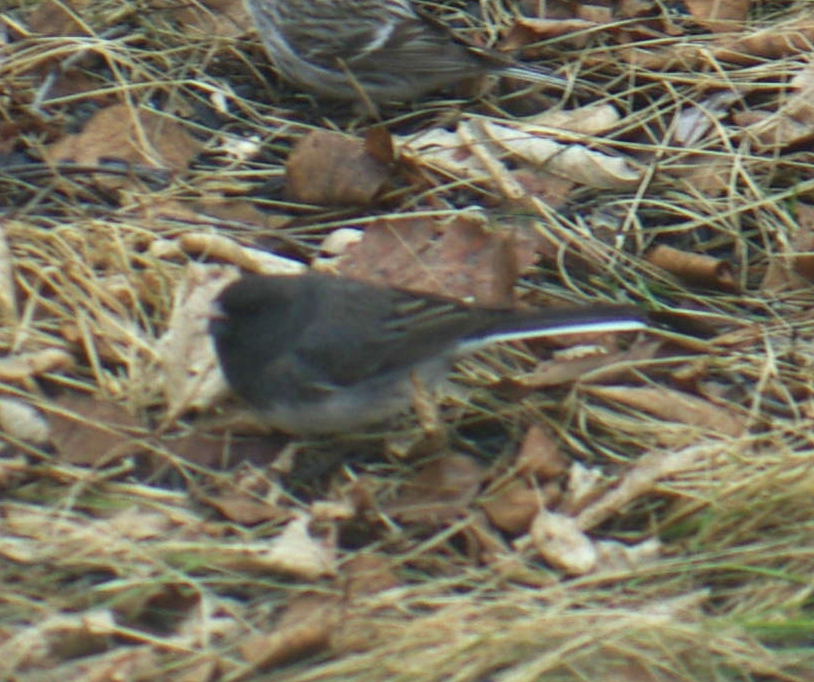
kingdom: Animalia
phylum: Chordata
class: Aves
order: Passeriformes
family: Passerellidae
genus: Junco
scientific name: Junco hyemalis
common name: Dark-eyed junco
